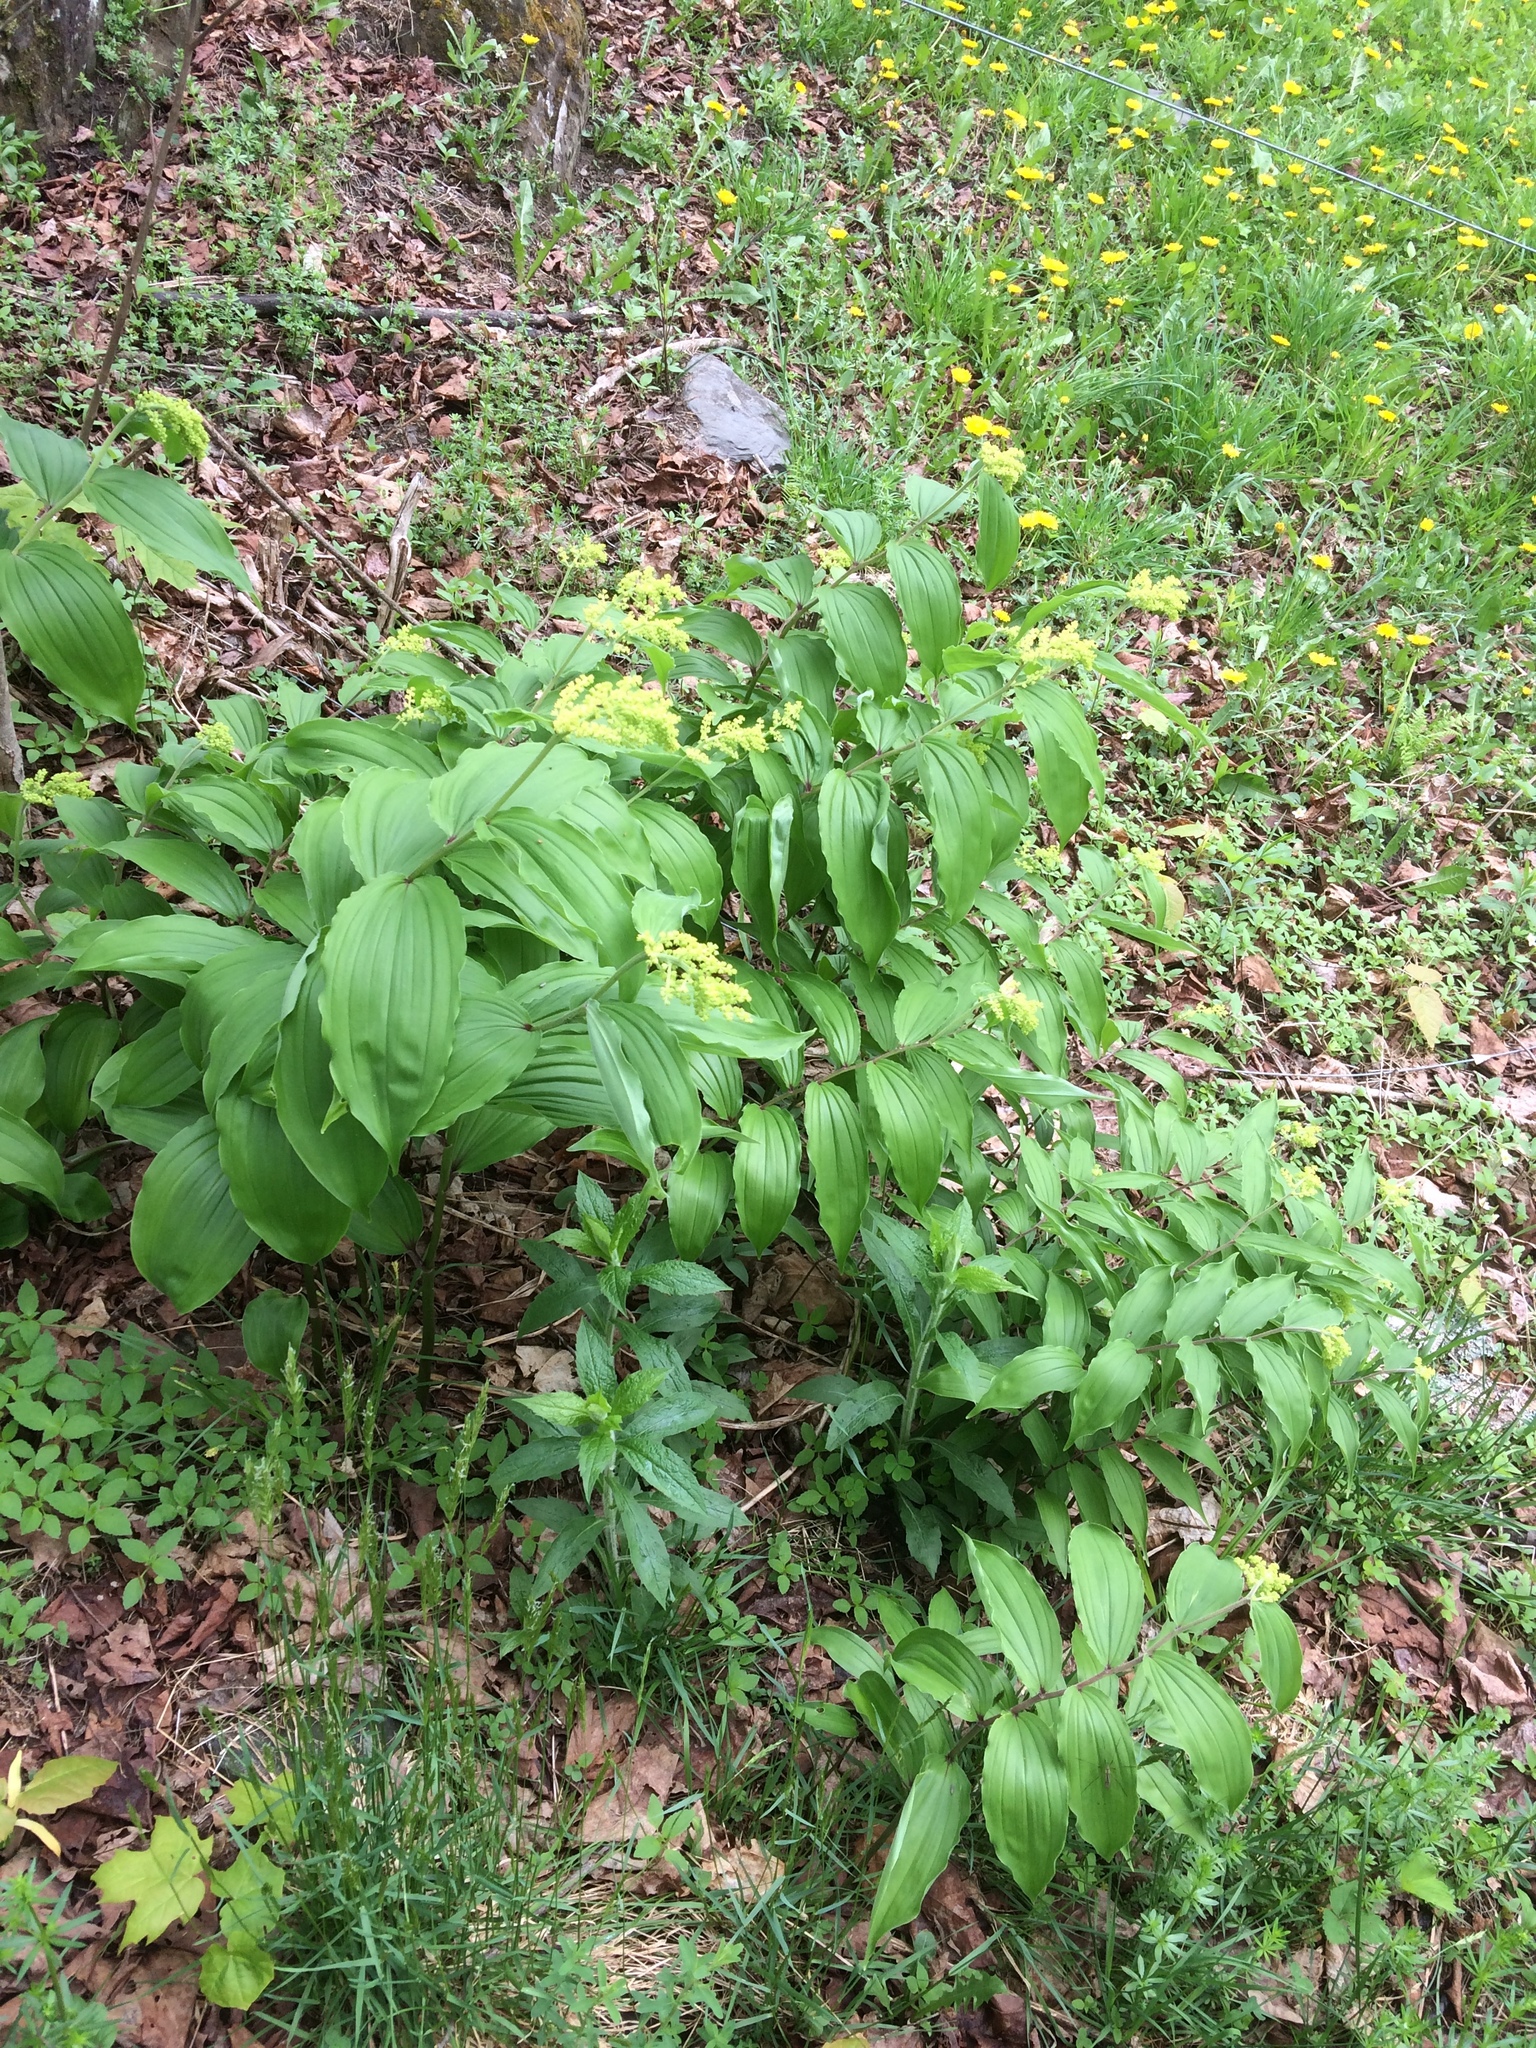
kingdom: Plantae
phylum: Tracheophyta
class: Liliopsida
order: Asparagales
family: Asparagaceae
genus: Maianthemum
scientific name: Maianthemum racemosum
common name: False spikenard
